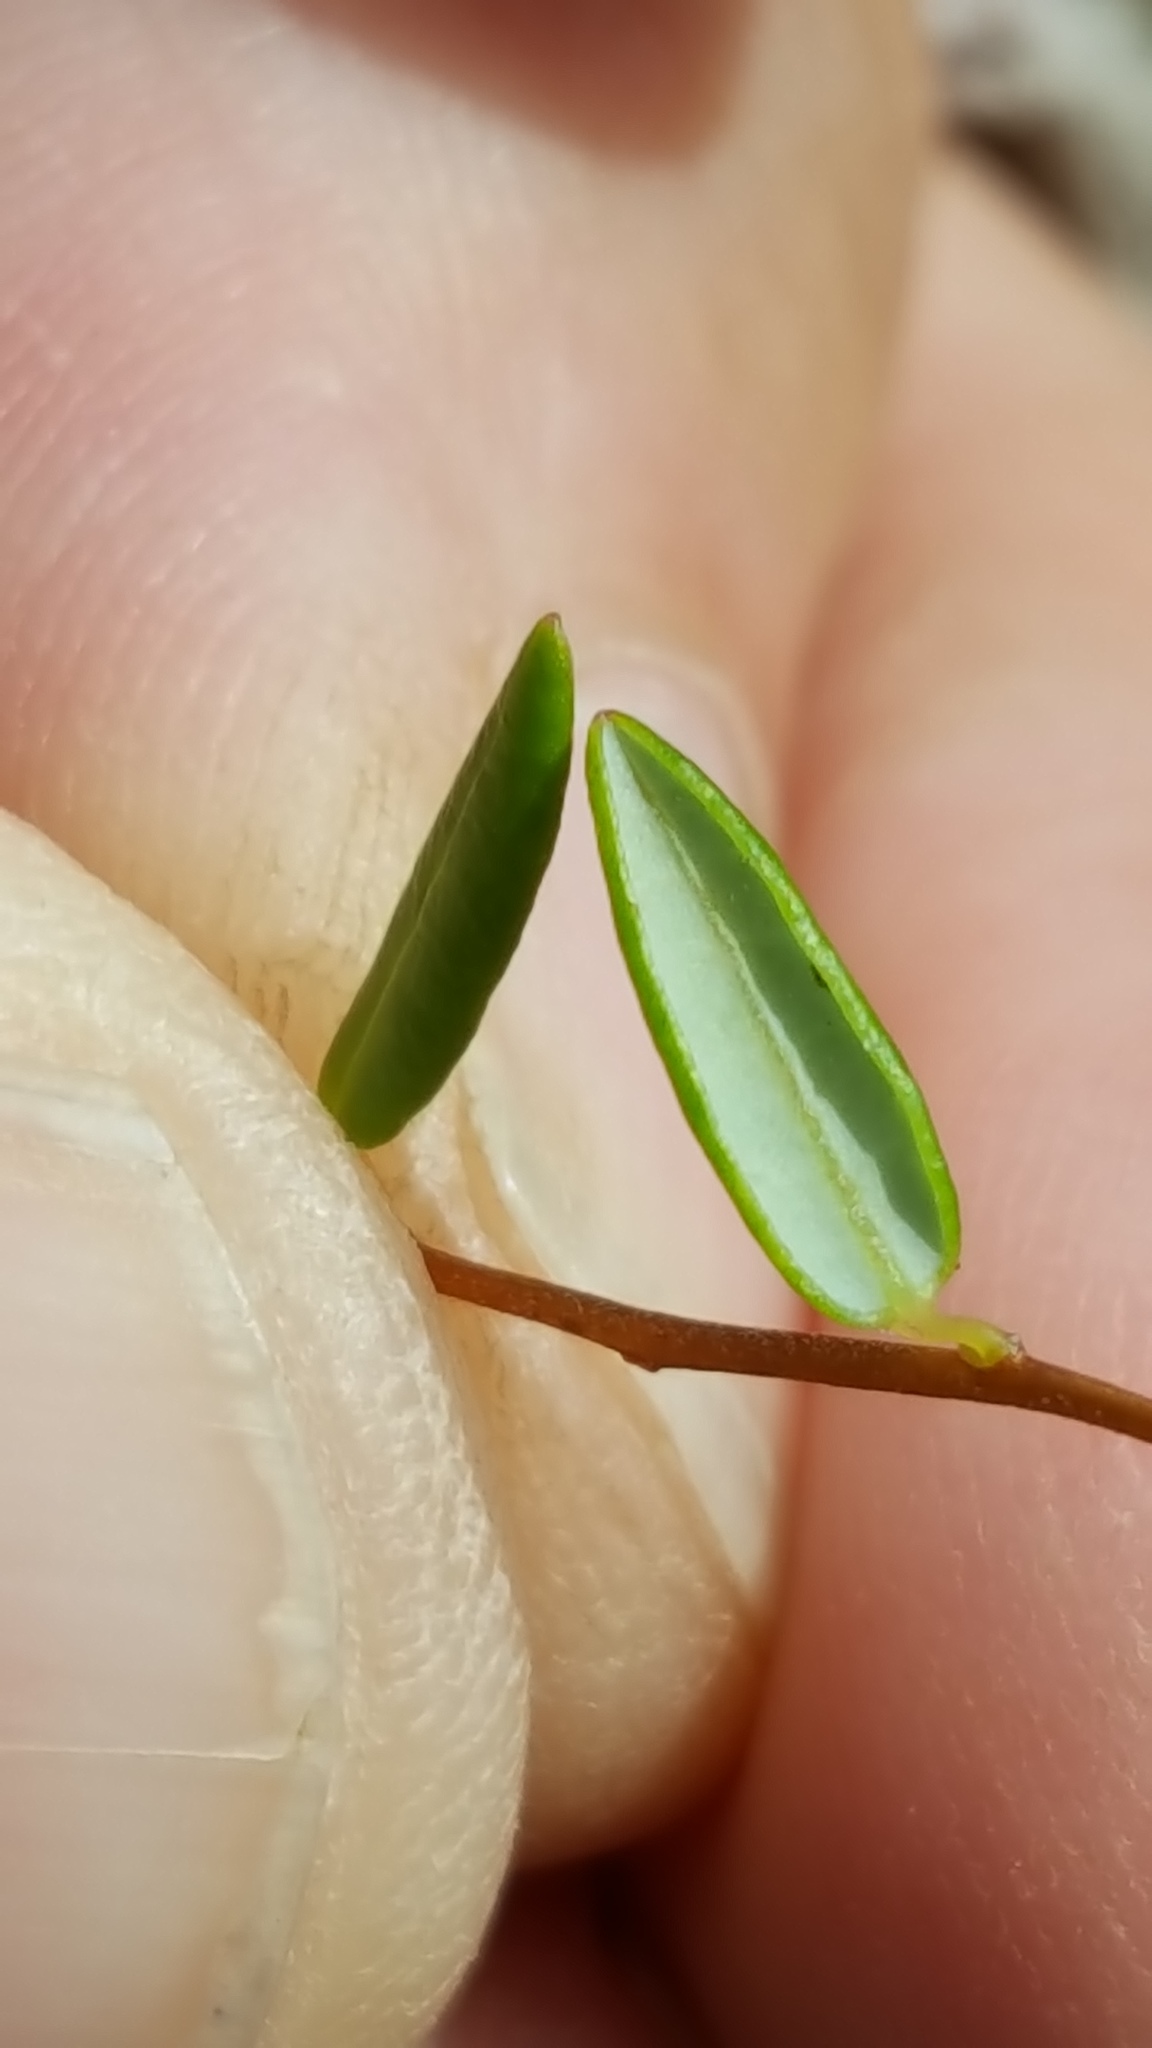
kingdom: Plantae
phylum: Tracheophyta
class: Magnoliopsida
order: Ericales
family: Ericaceae
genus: Vaccinium
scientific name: Vaccinium oxycoccos
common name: Cranberry
